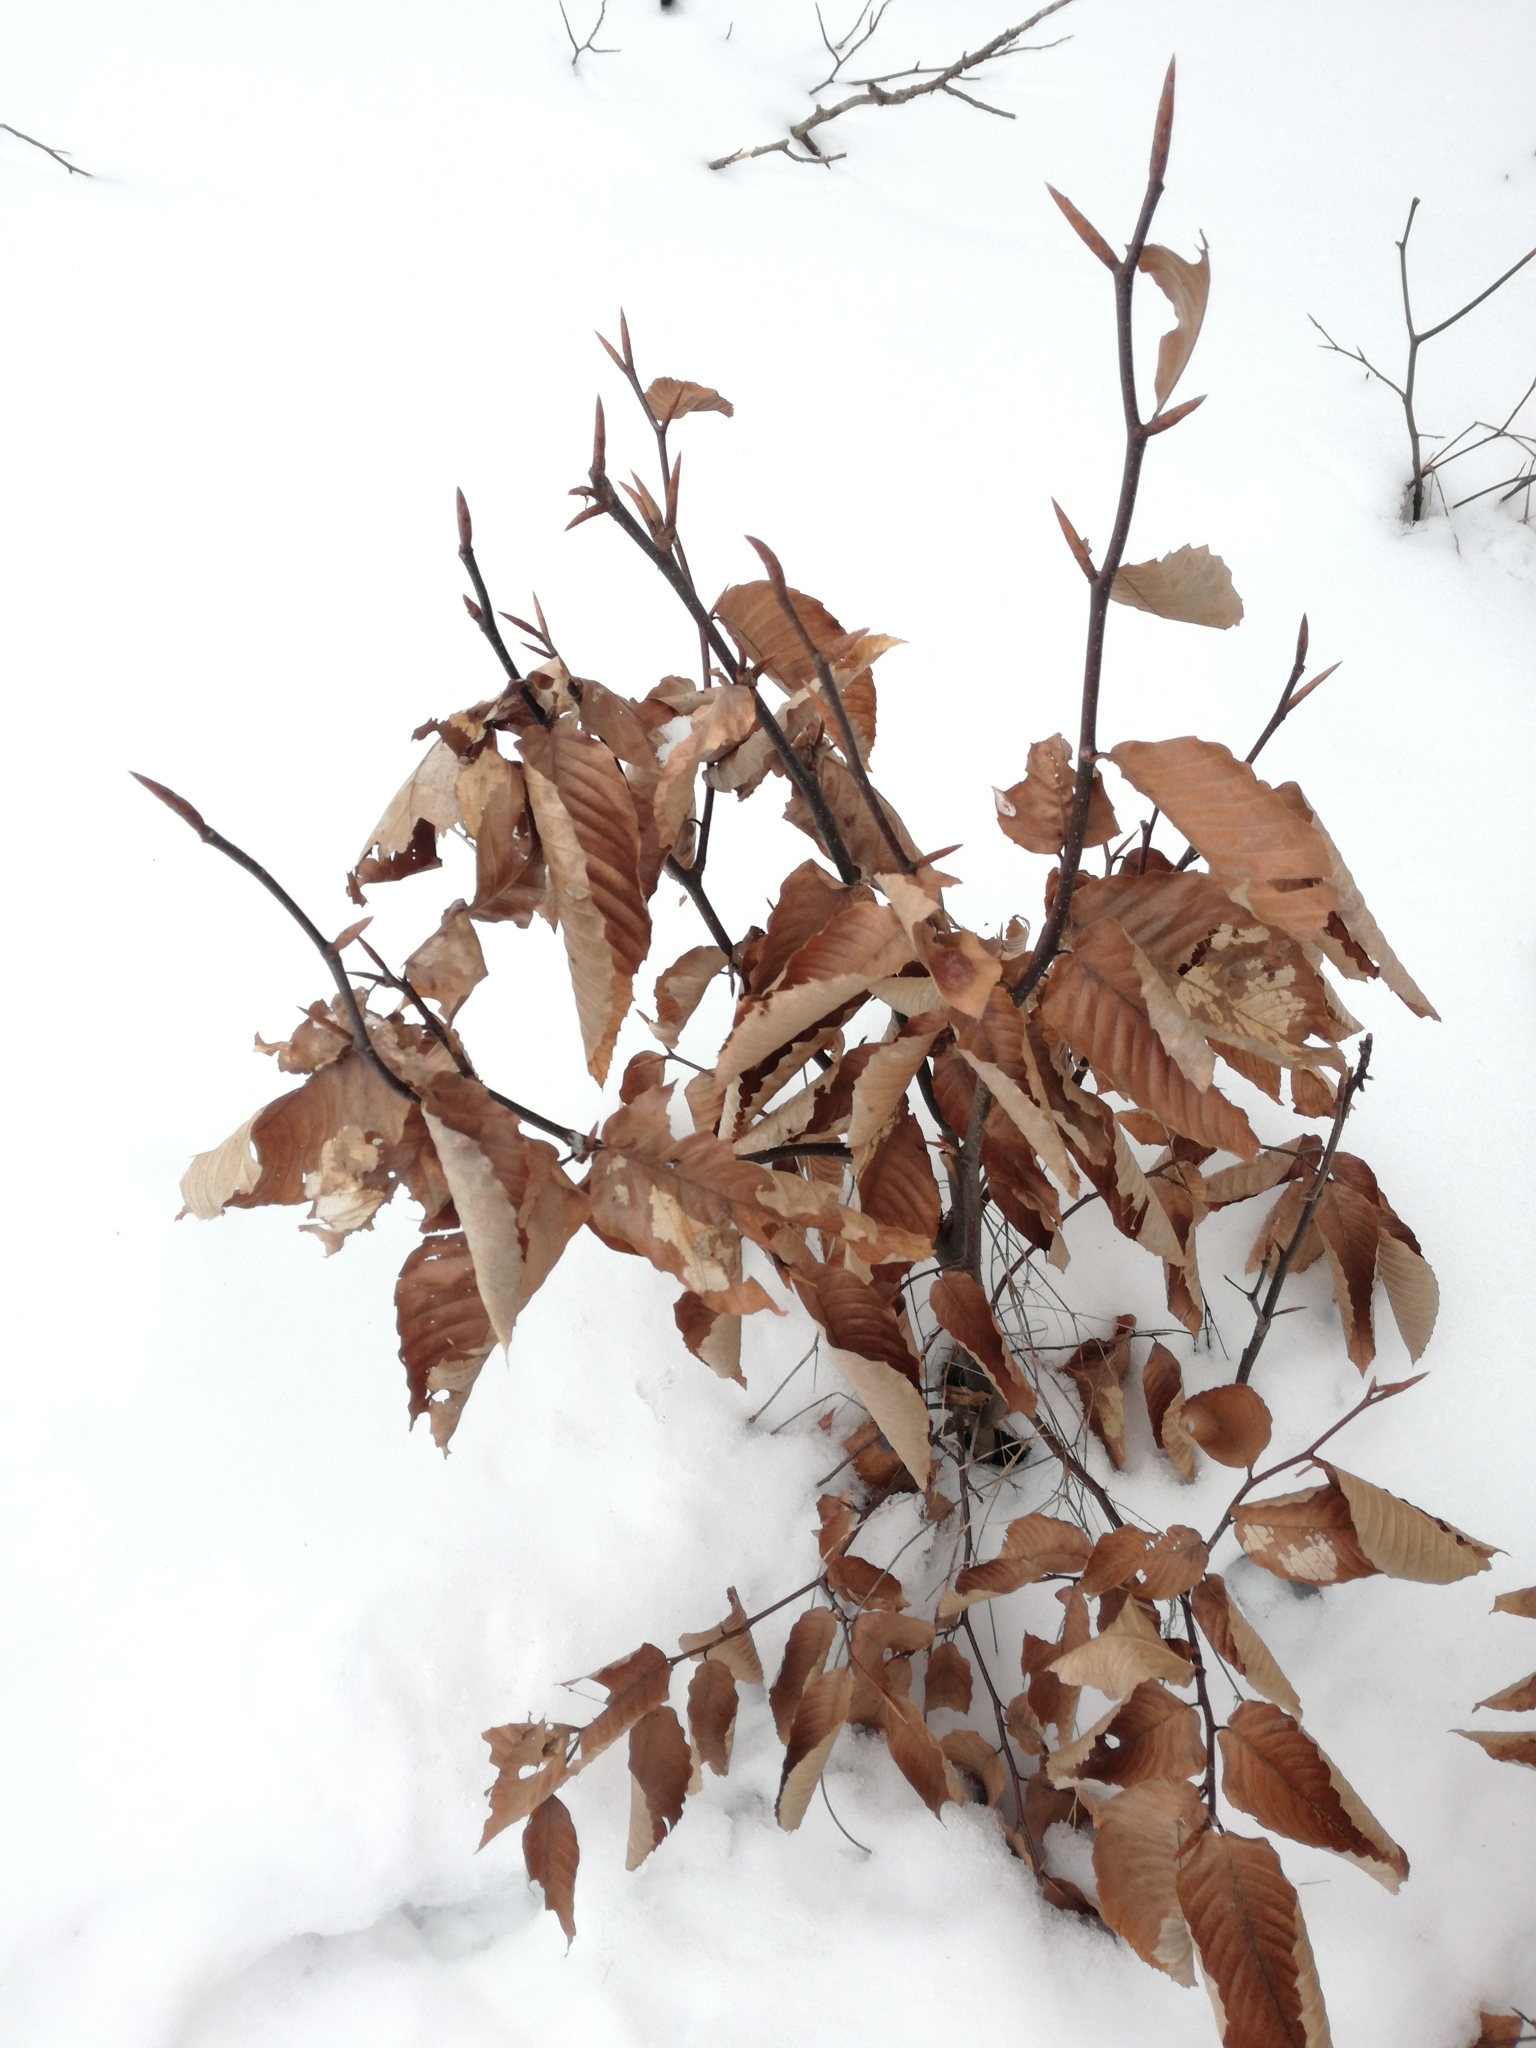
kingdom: Plantae
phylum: Tracheophyta
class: Magnoliopsida
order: Fagales
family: Fagaceae
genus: Fagus
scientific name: Fagus grandifolia
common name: American beech
